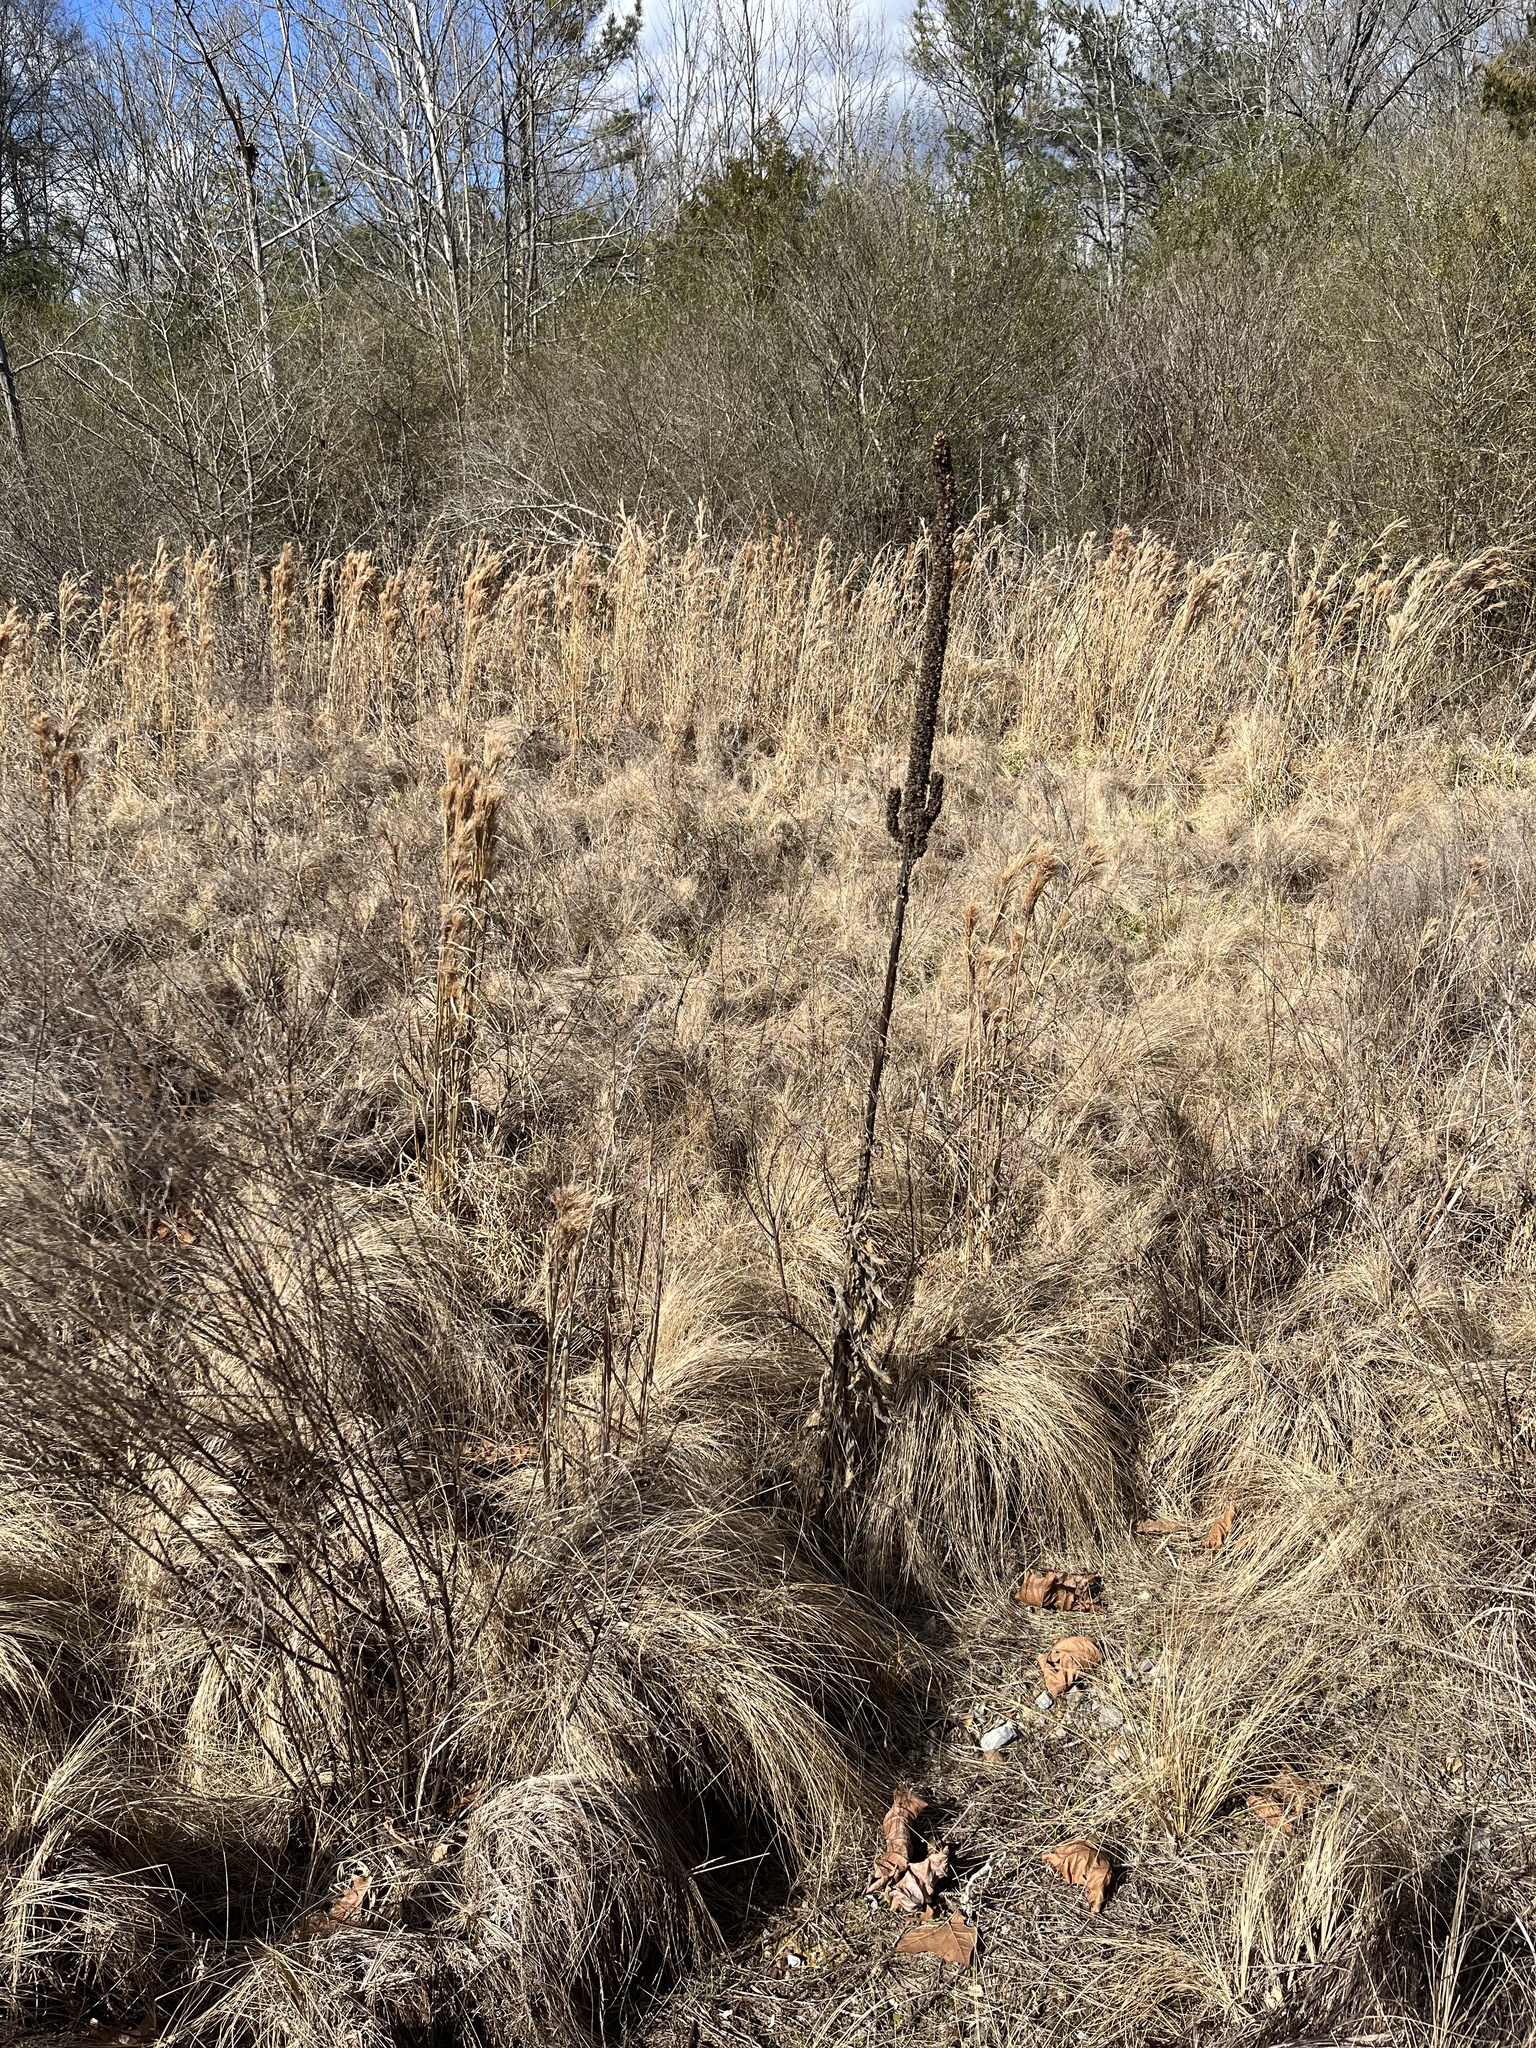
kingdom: Plantae
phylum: Tracheophyta
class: Magnoliopsida
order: Lamiales
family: Scrophulariaceae
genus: Verbascum
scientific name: Verbascum thapsus
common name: Common mullein
